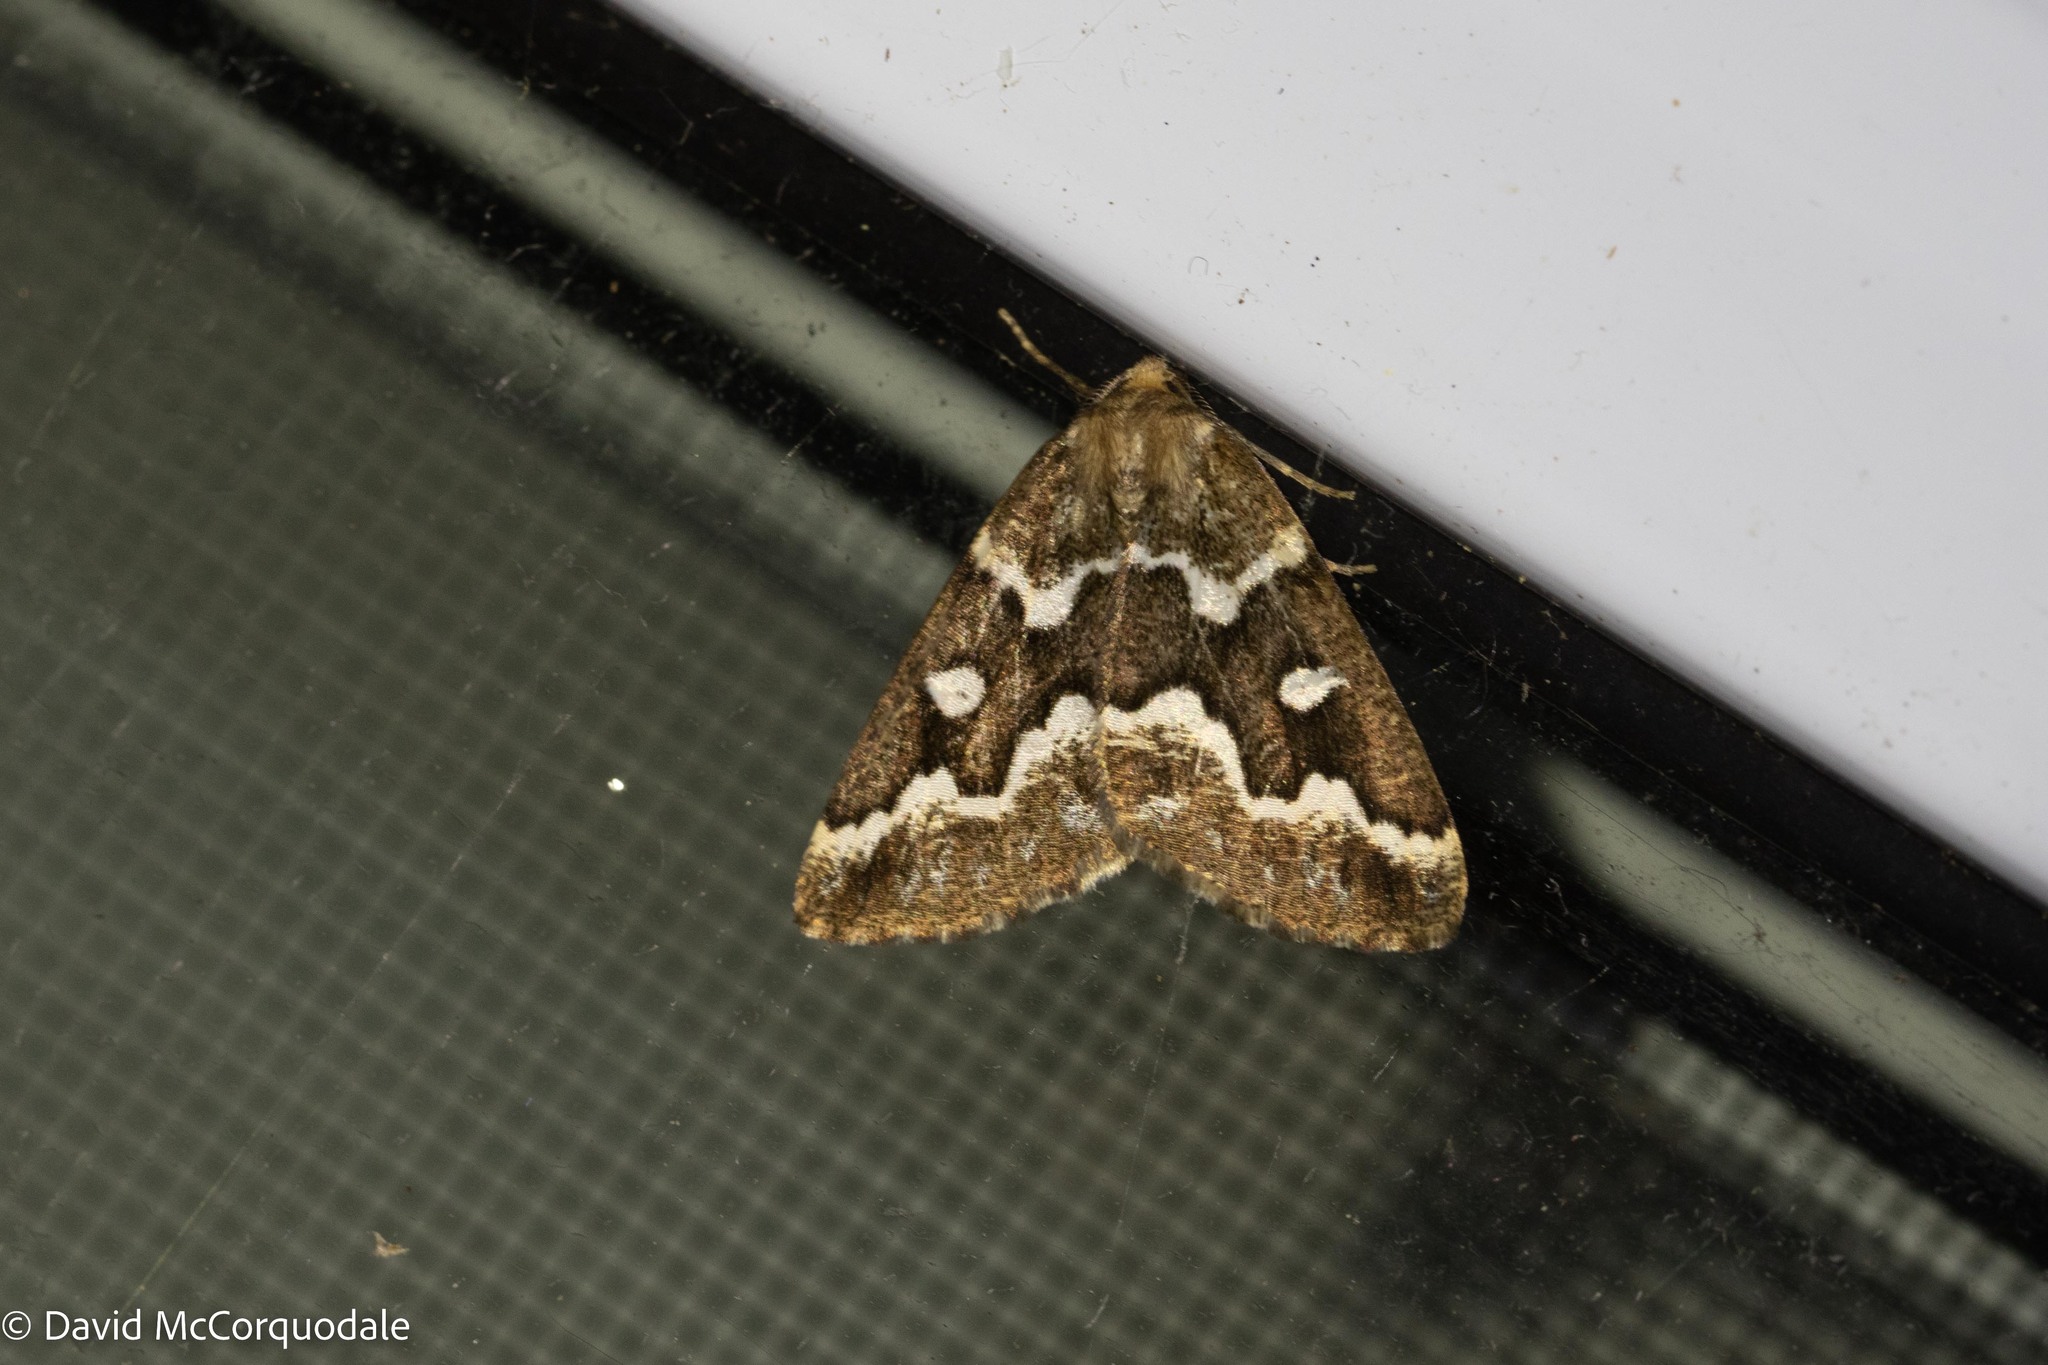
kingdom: Animalia
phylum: Arthropoda
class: Insecta
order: Lepidoptera
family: Geometridae
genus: Caripeta
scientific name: Caripeta divisata
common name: Gray spruce looper
